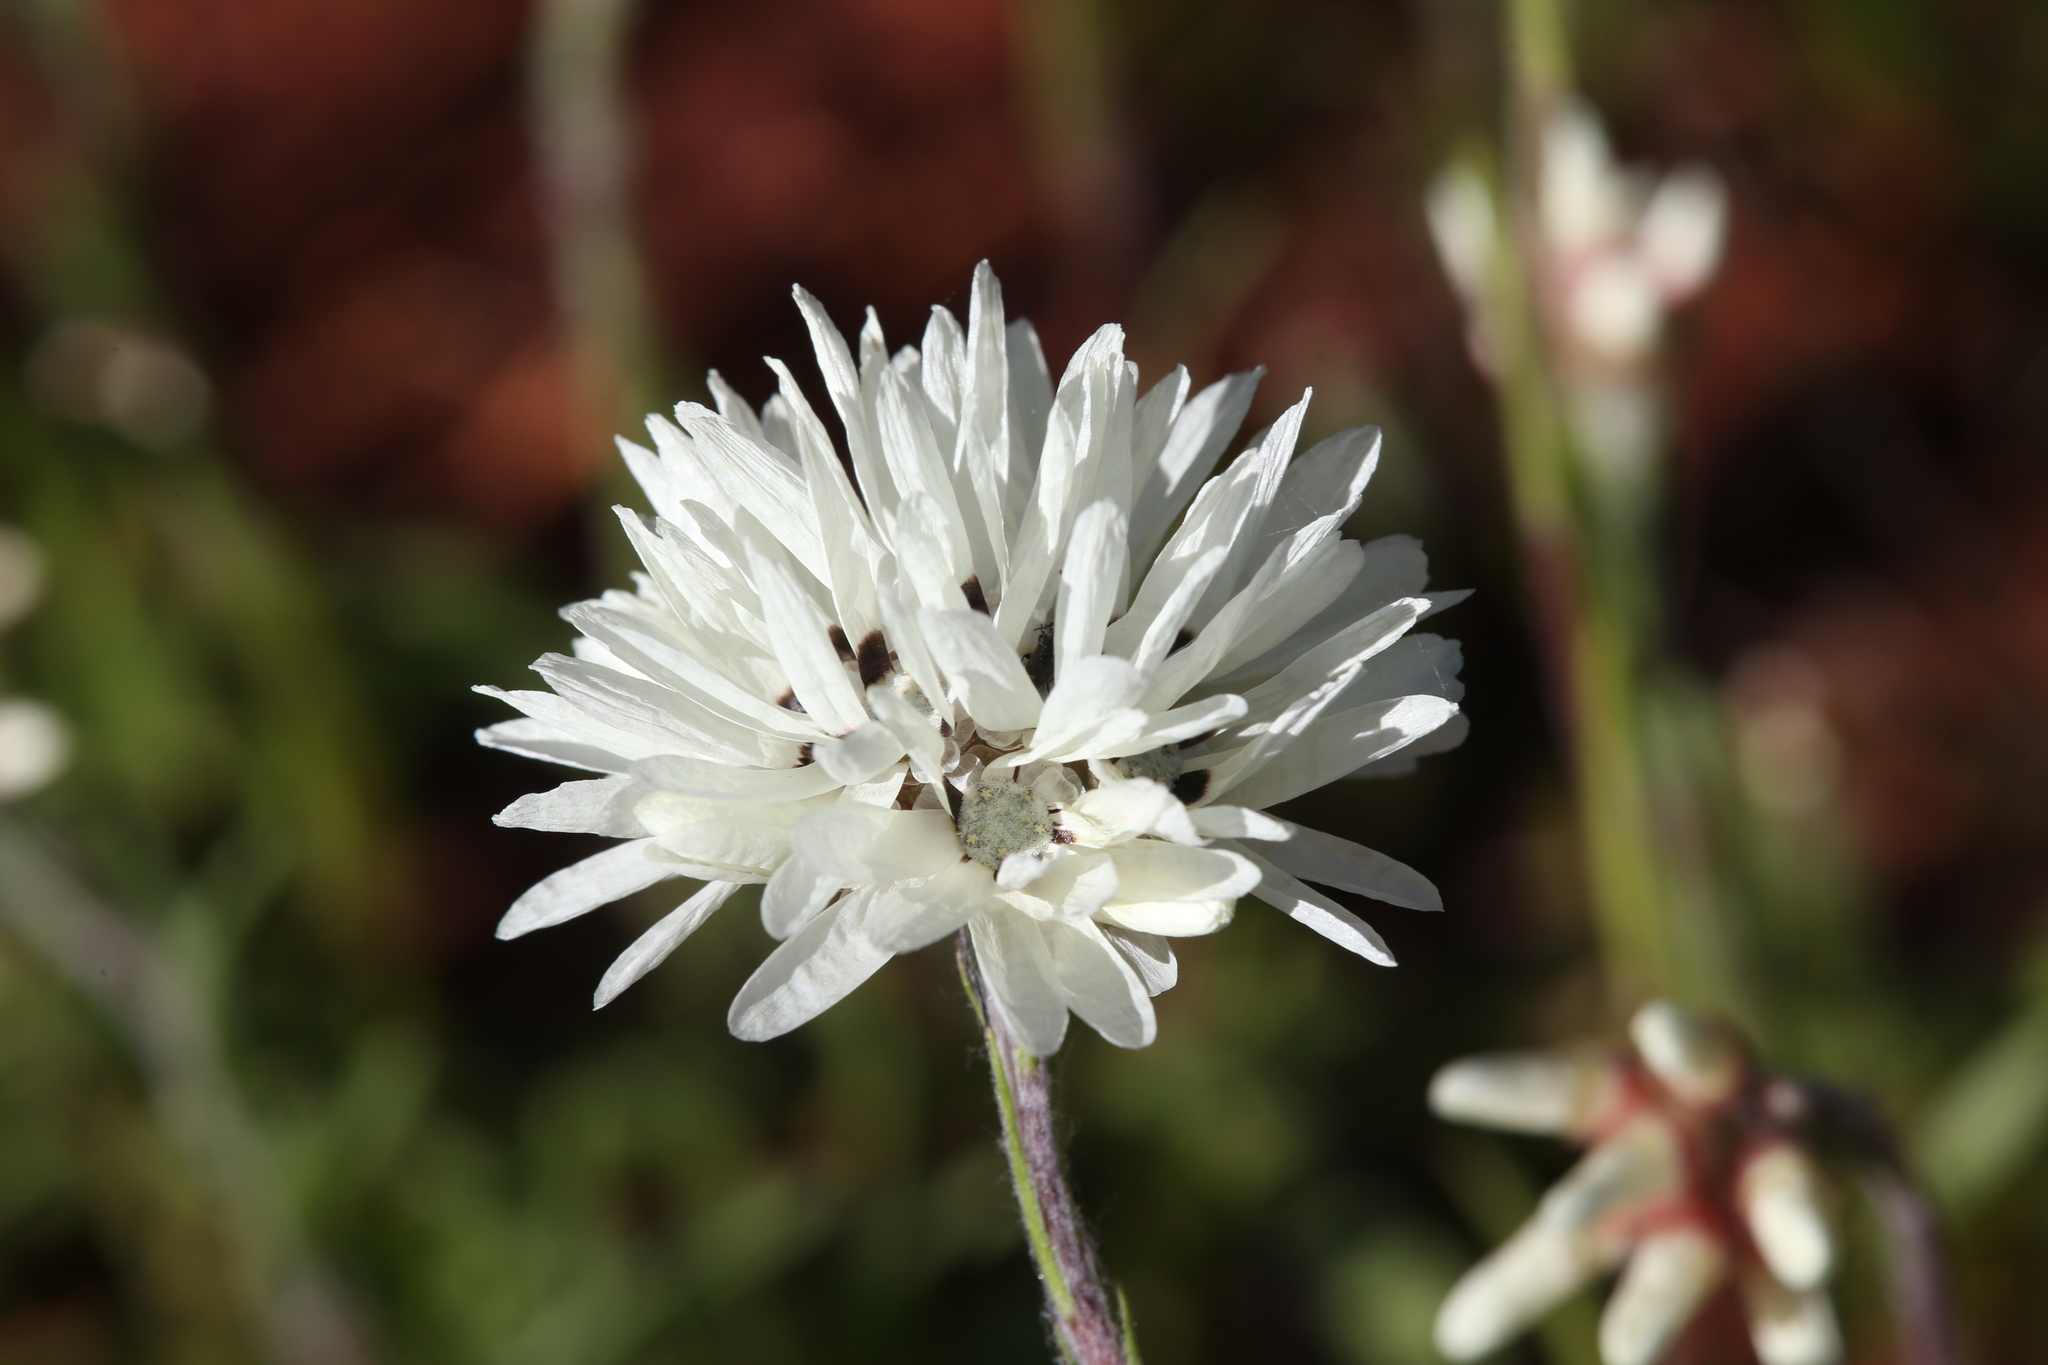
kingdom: Plantae
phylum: Tracheophyta
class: Magnoliopsida
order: Asterales
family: Asteraceae
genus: Cephalipterum
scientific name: Cephalipterum drummondii
